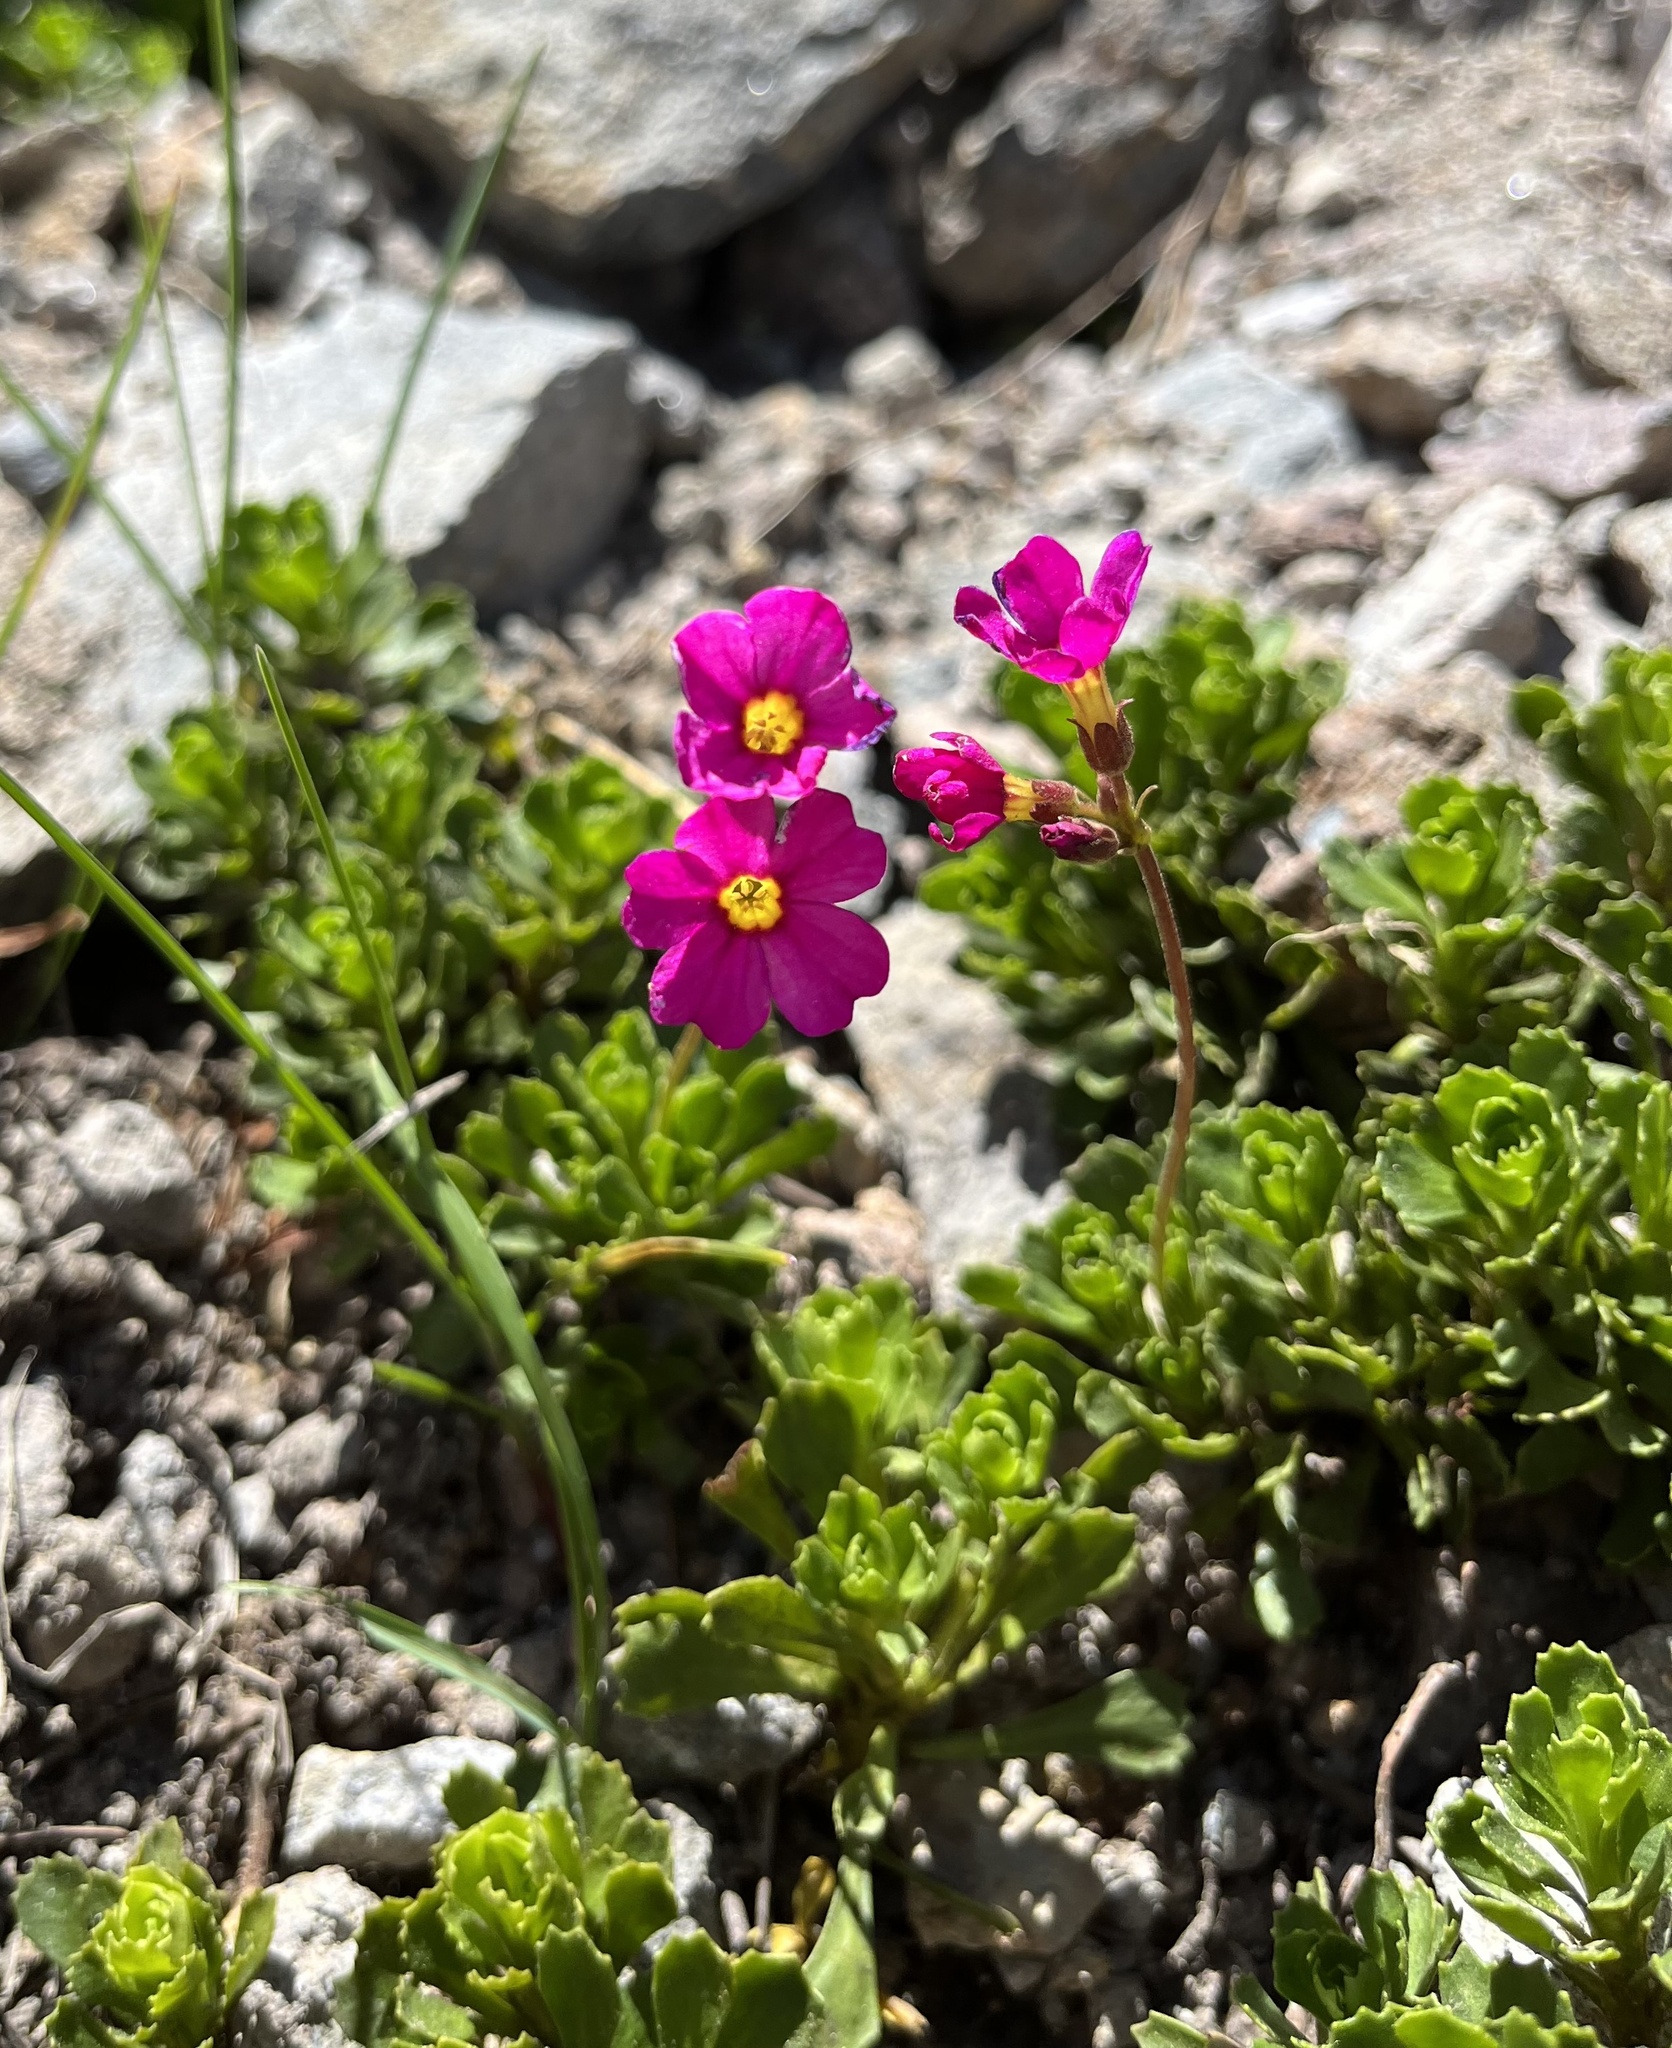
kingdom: Plantae
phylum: Tracheophyta
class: Magnoliopsida
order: Ericales
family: Primulaceae
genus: Primula
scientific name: Primula suffrutescens
